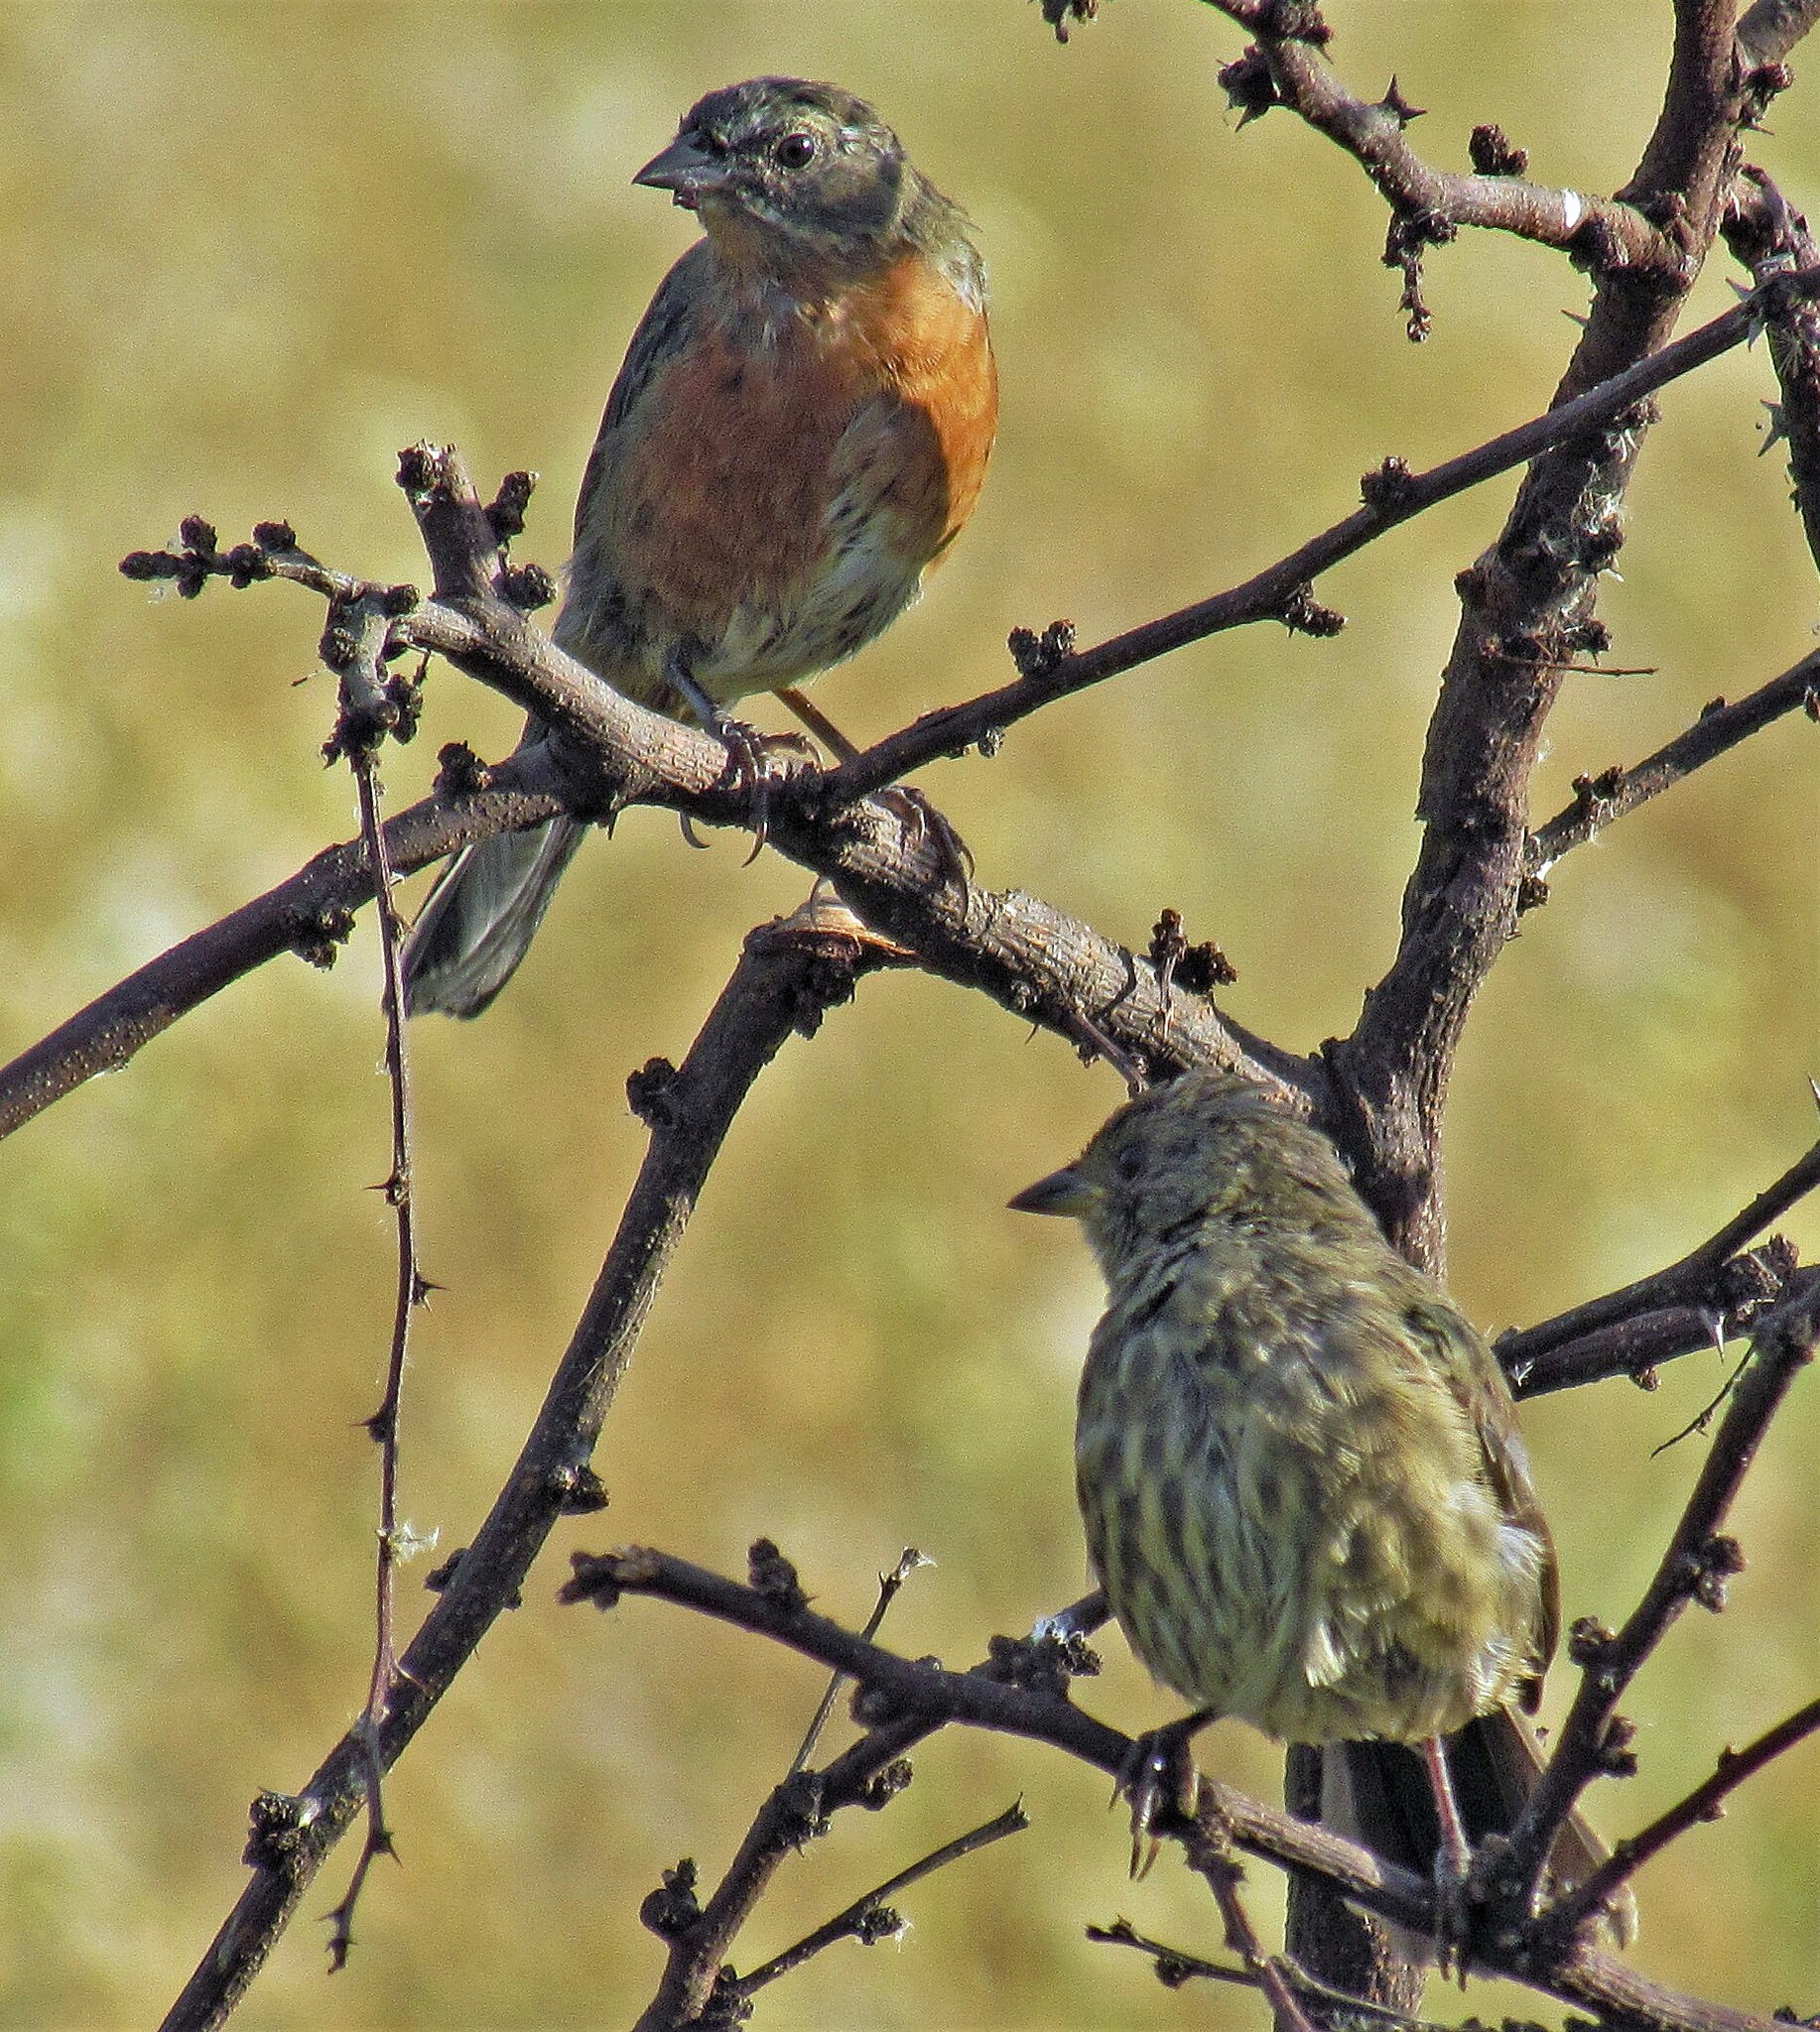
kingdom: Animalia
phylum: Chordata
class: Aves
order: Passeriformes
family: Thraupidae
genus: Poospiza
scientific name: Poospiza nigrorufa
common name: Black-and-rufous warbling finch
